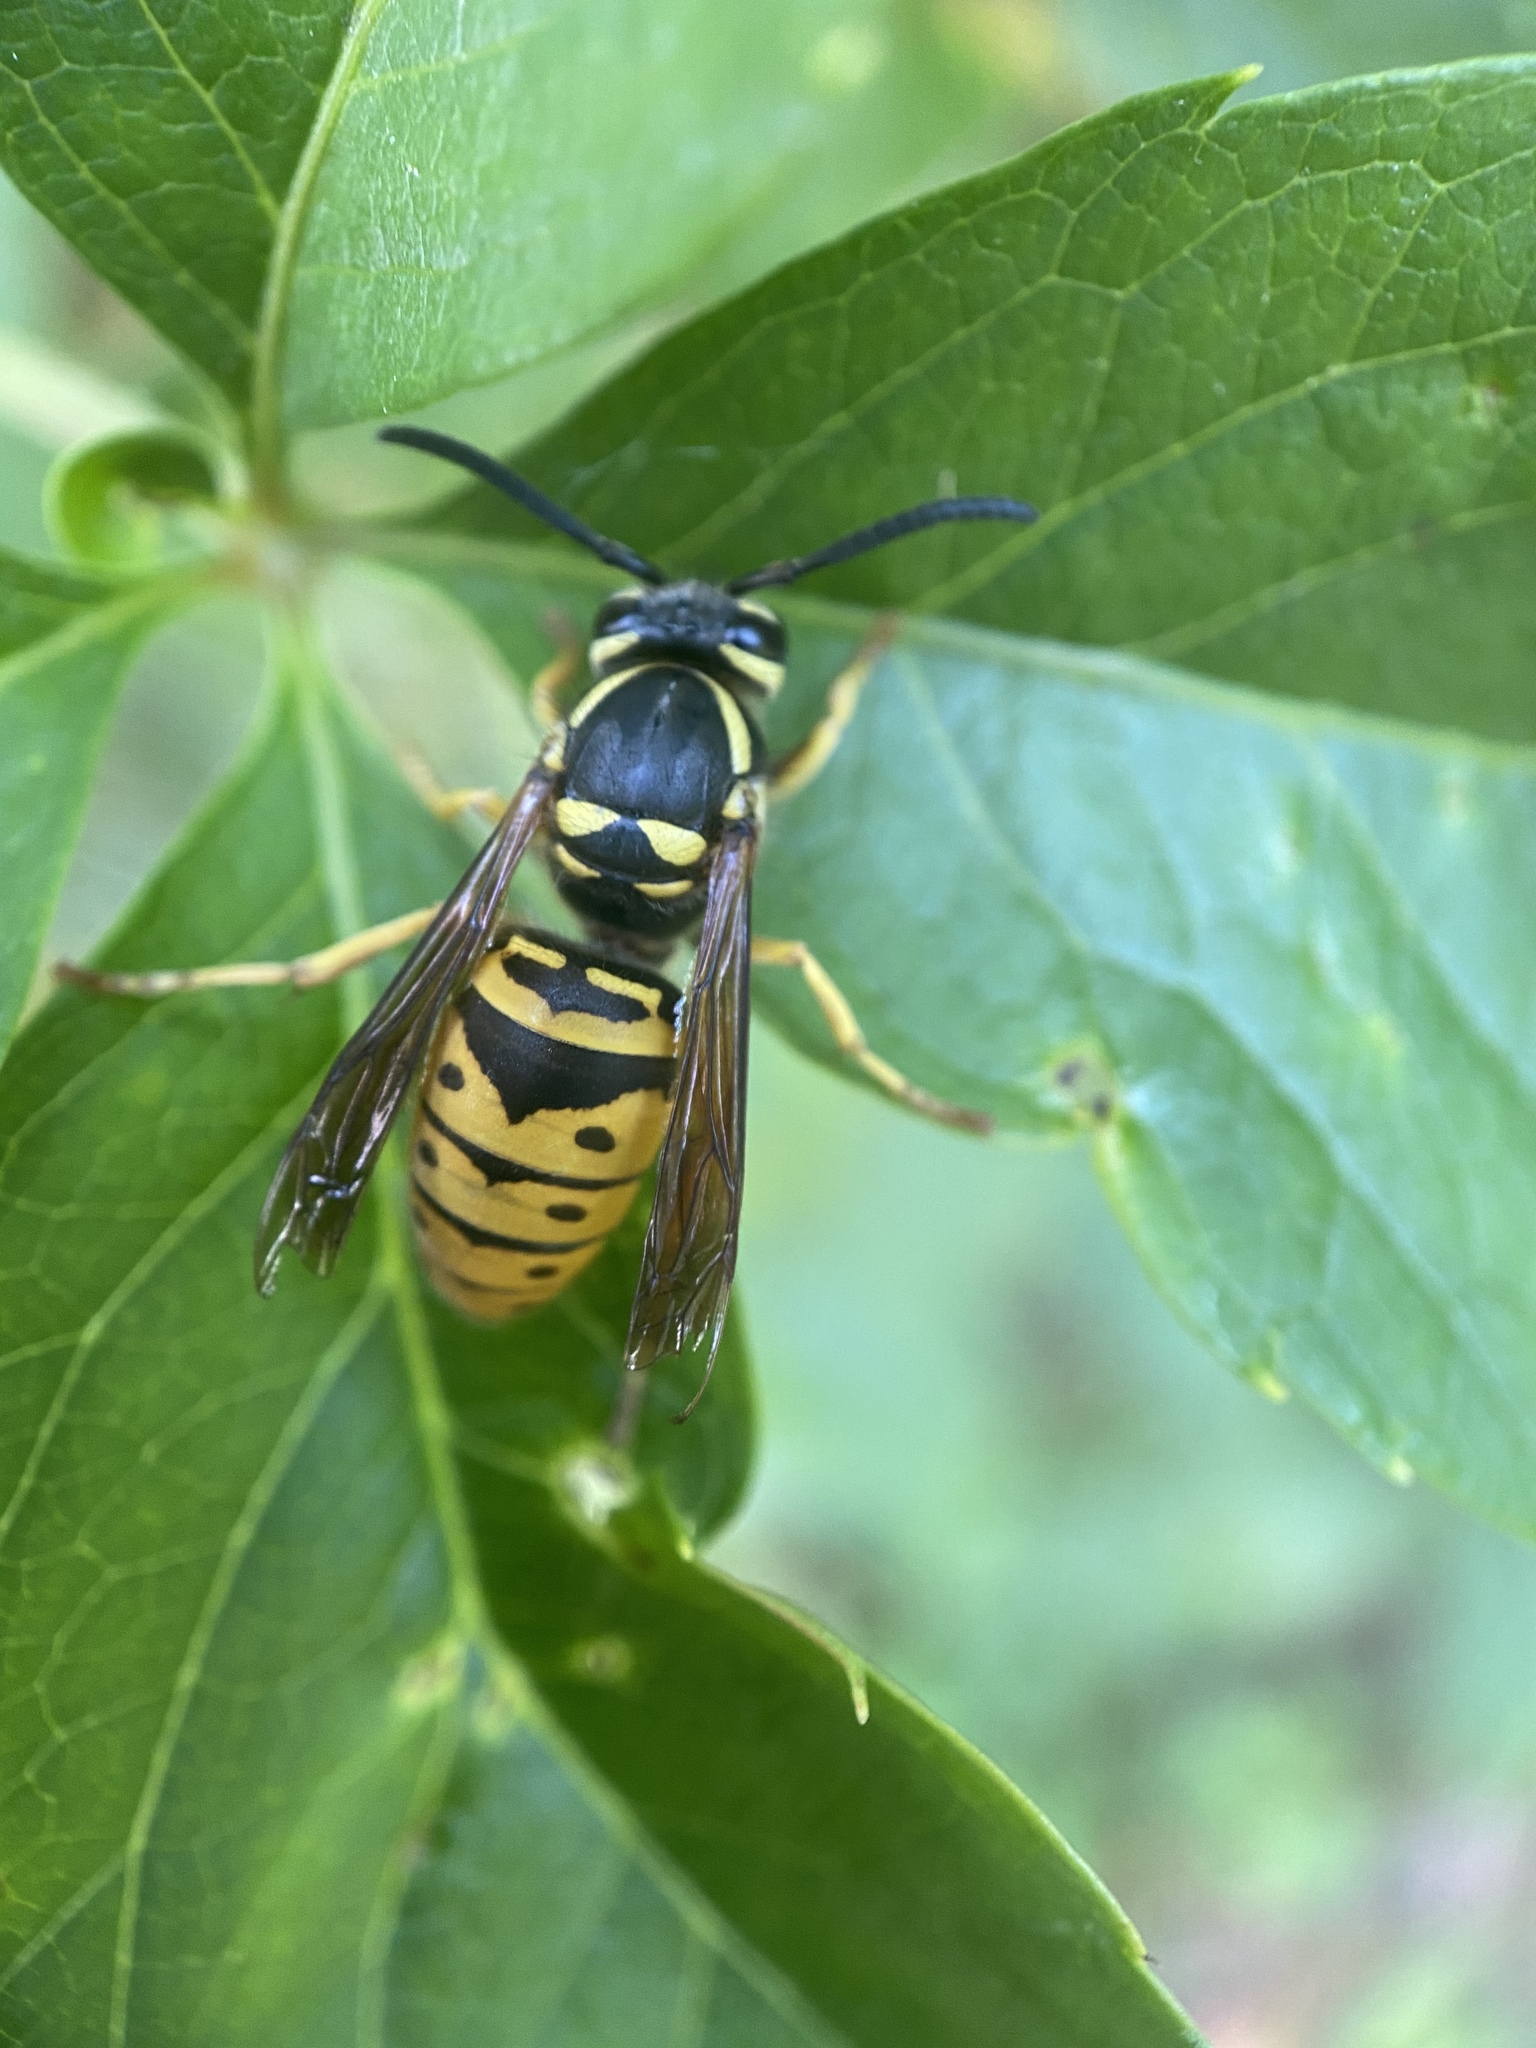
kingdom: Animalia
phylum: Arthropoda
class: Insecta
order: Hymenoptera
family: Vespidae
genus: Vespula
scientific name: Vespula maculifrons
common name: Eastern yellowjacket
